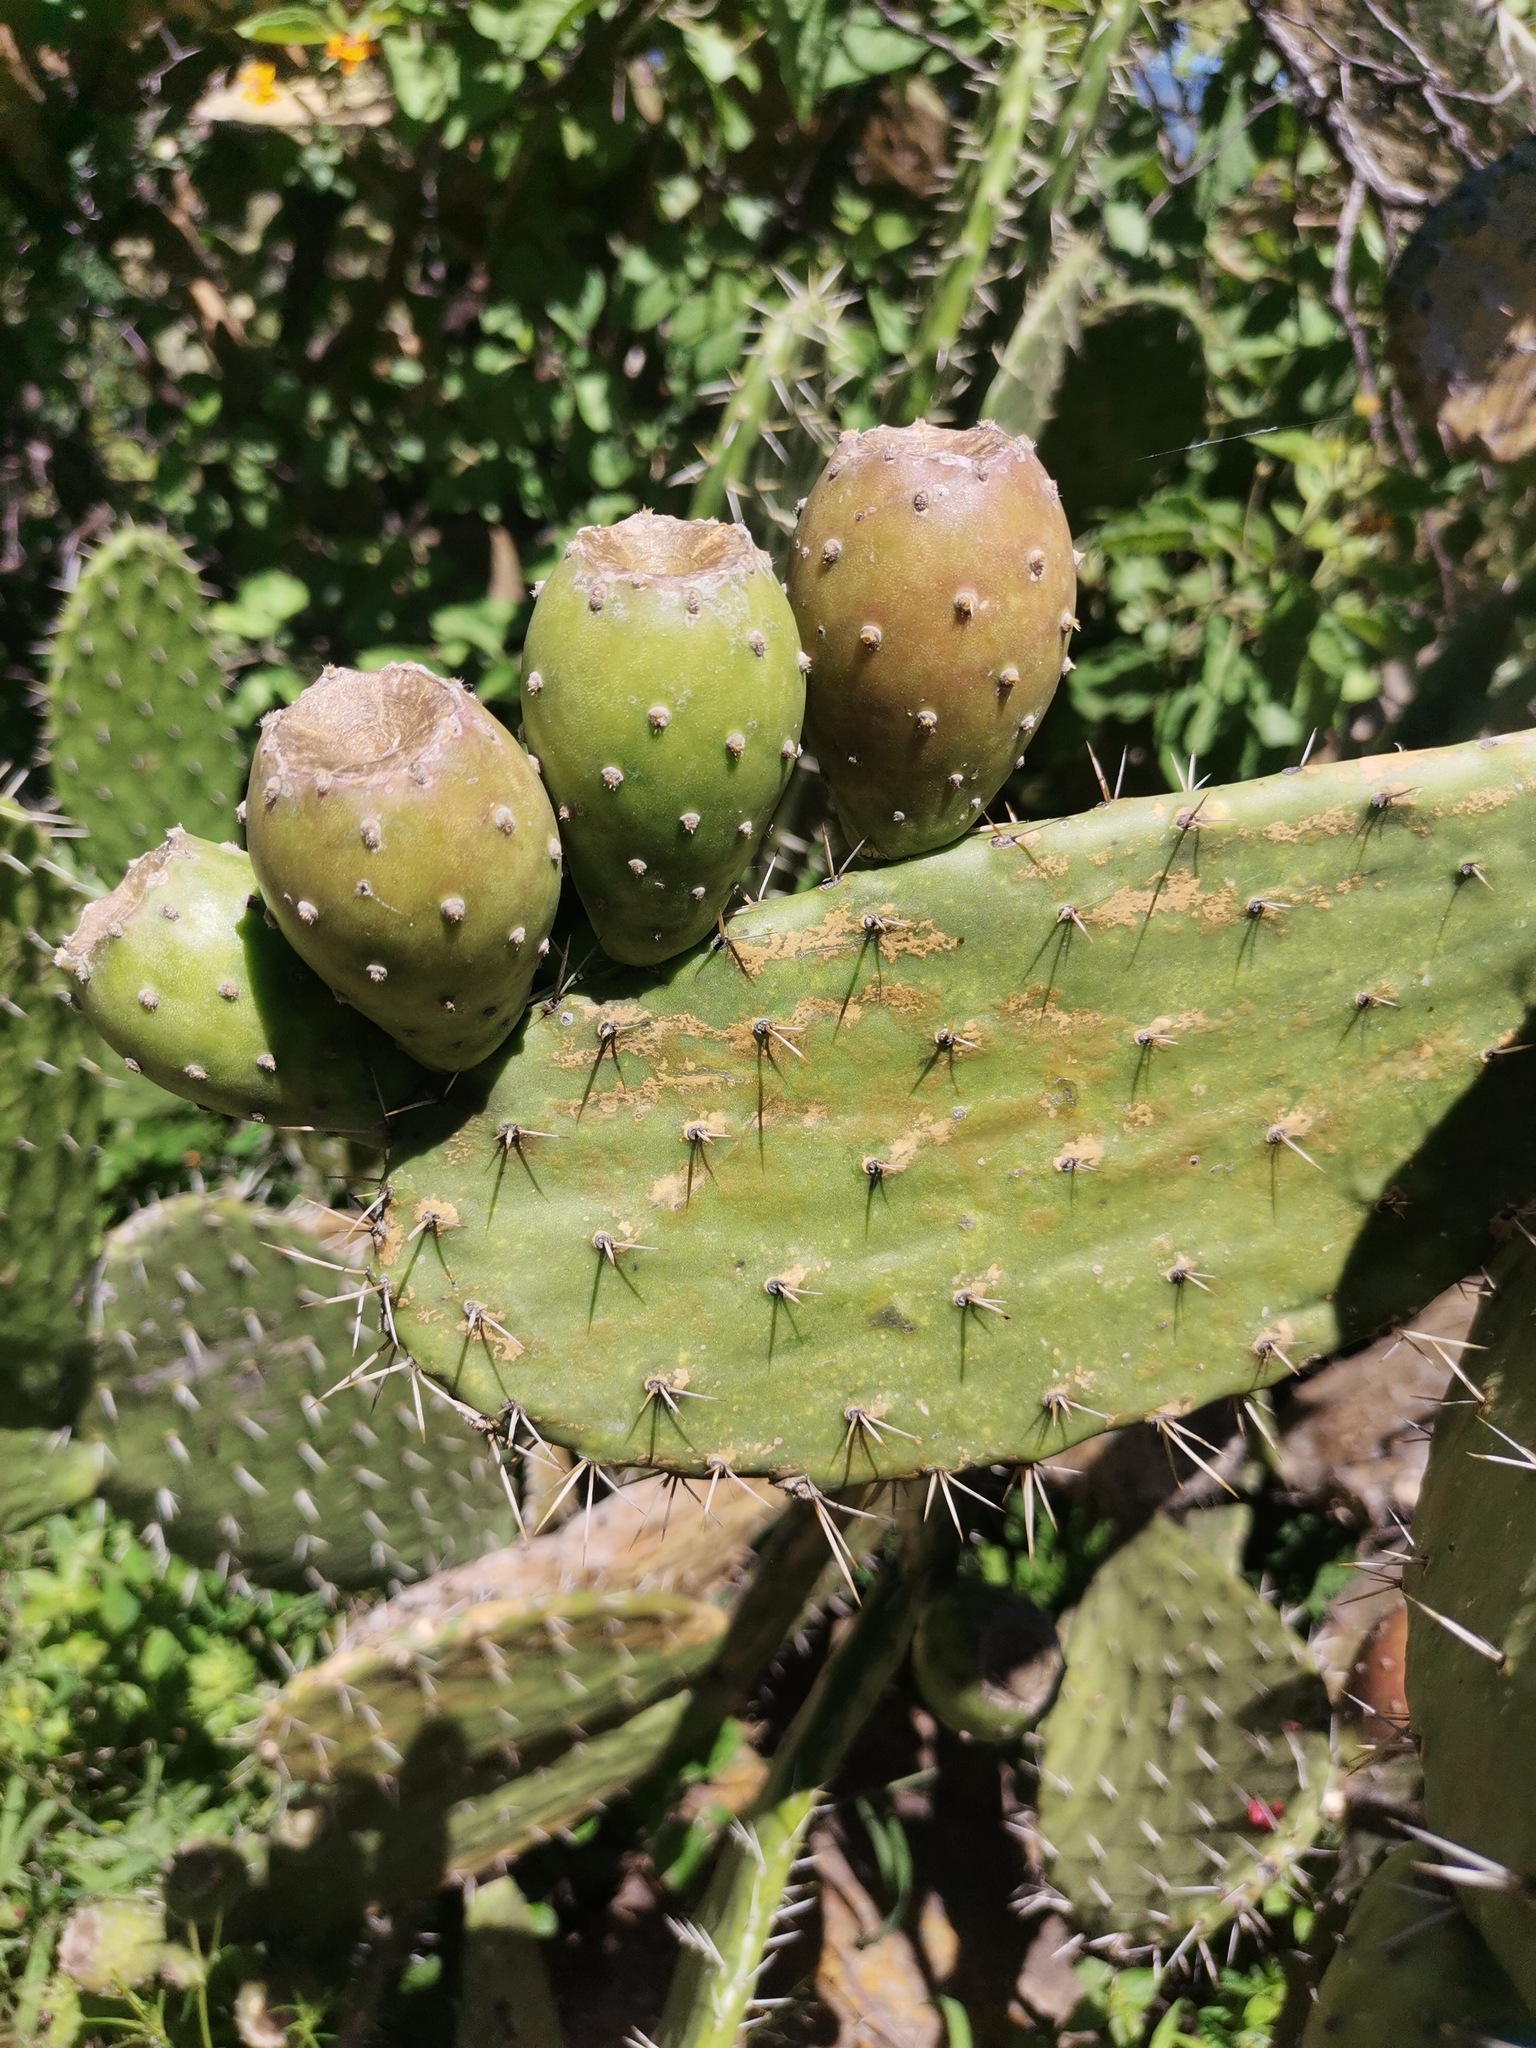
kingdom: Plantae
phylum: Tracheophyta
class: Magnoliopsida
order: Caryophyllales
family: Cactaceae
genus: Opuntia
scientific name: Opuntia tomentosa
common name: Woollyjoint pricklypear
